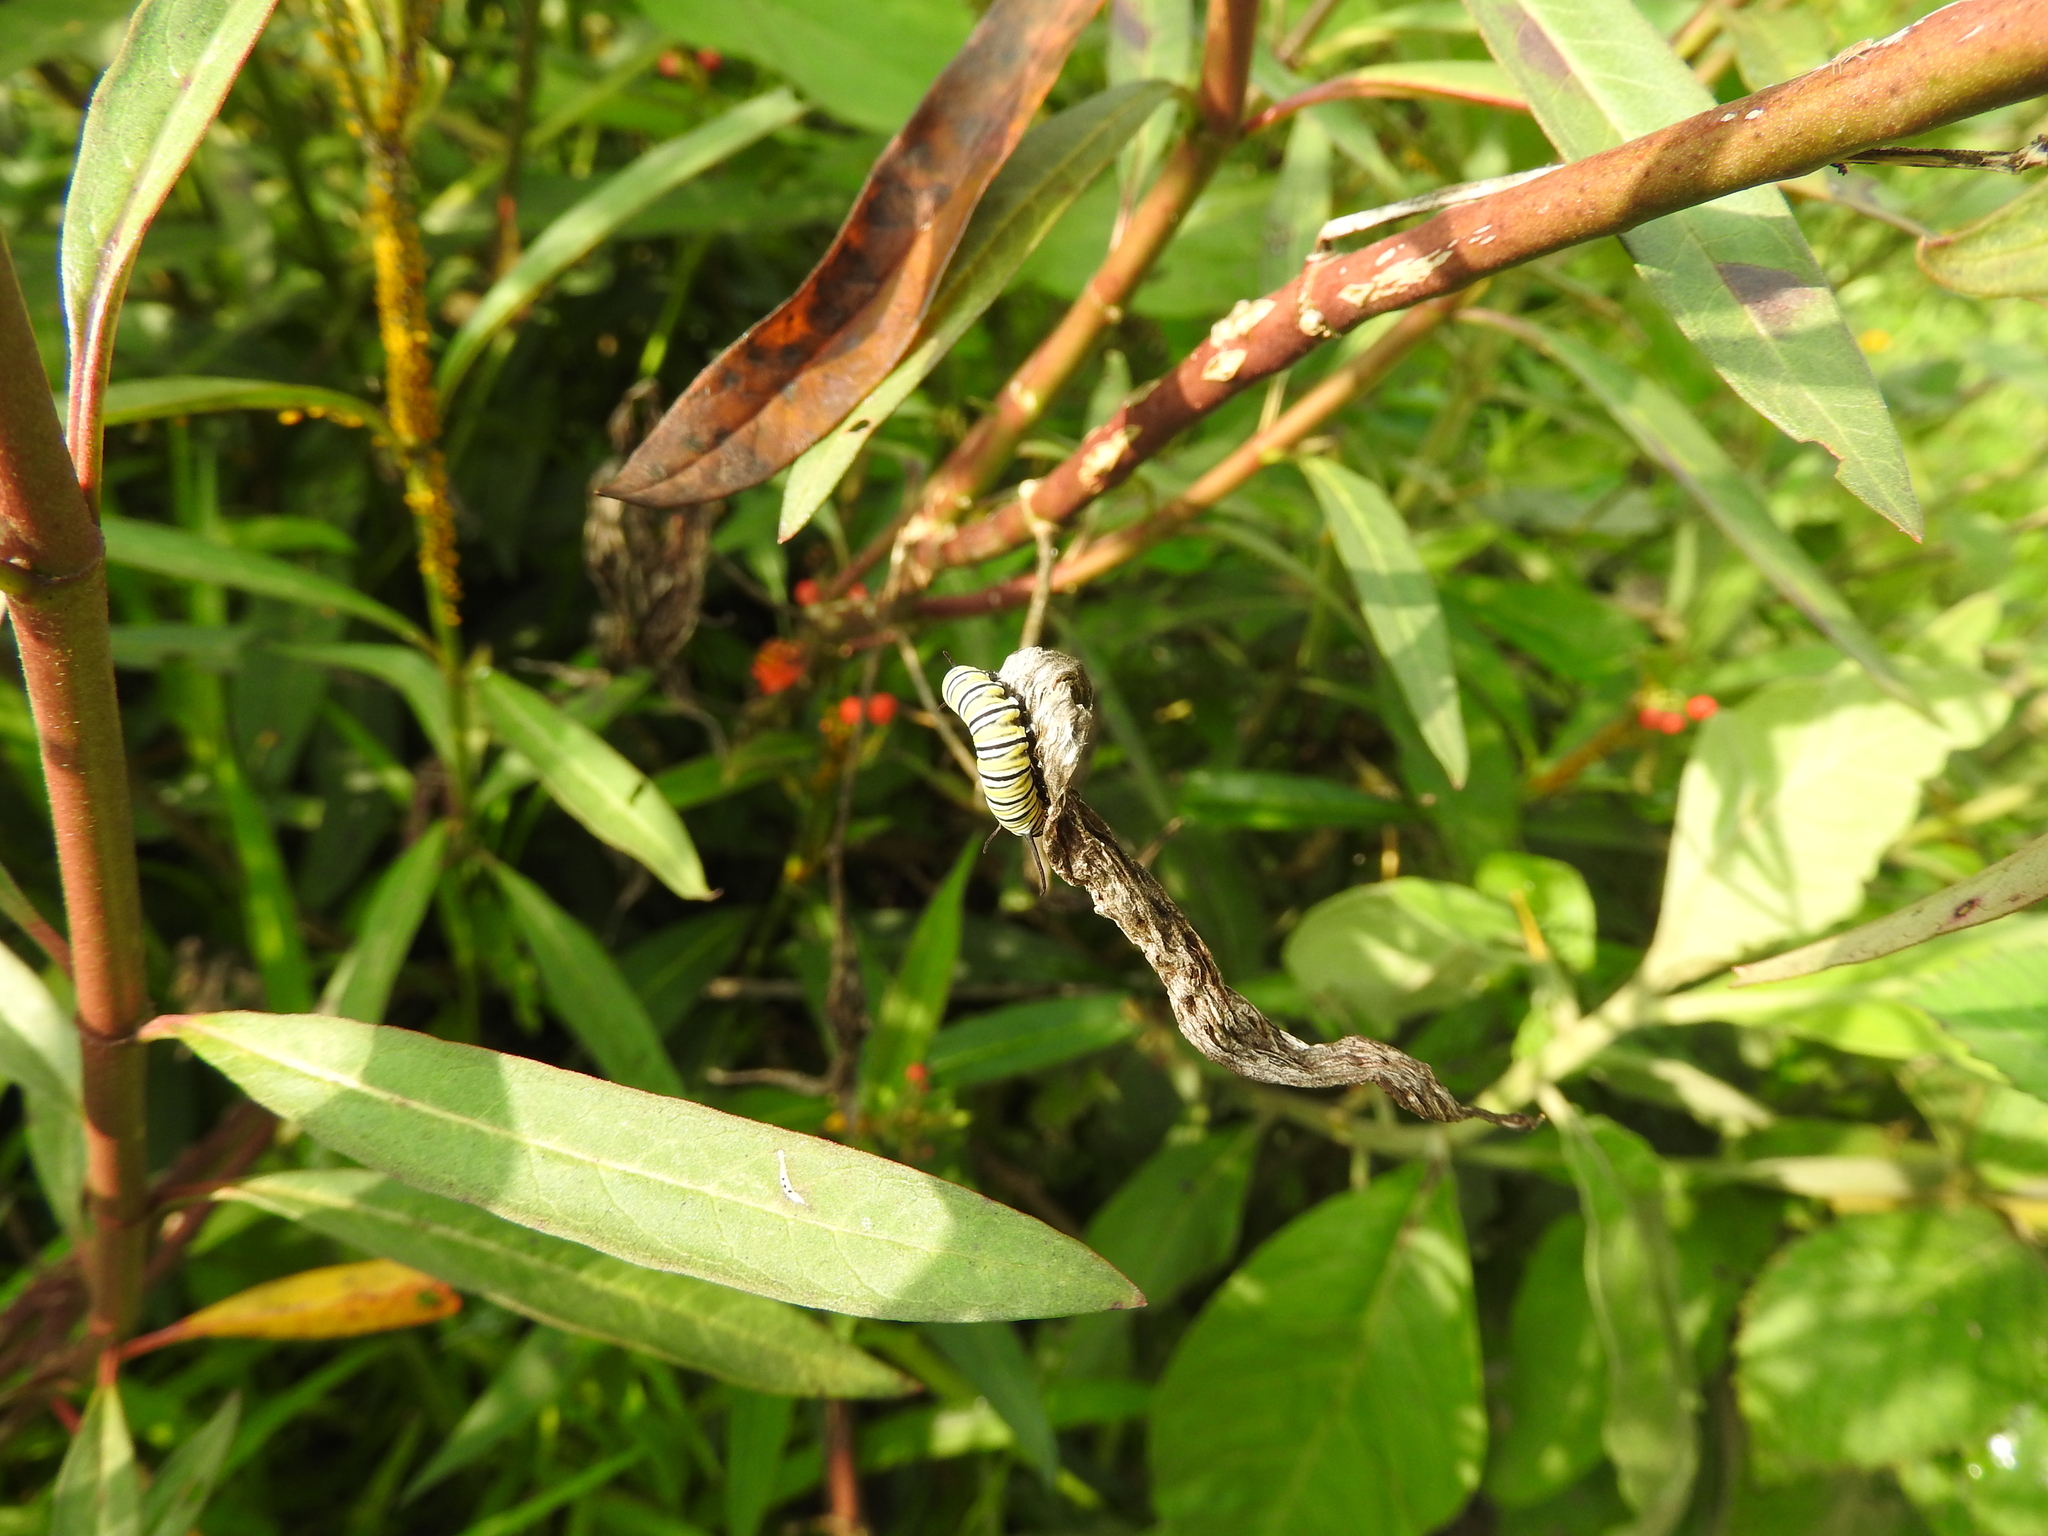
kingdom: Animalia
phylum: Arthropoda
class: Insecta
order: Lepidoptera
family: Nymphalidae
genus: Danaus
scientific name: Danaus plexippus
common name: Monarch
